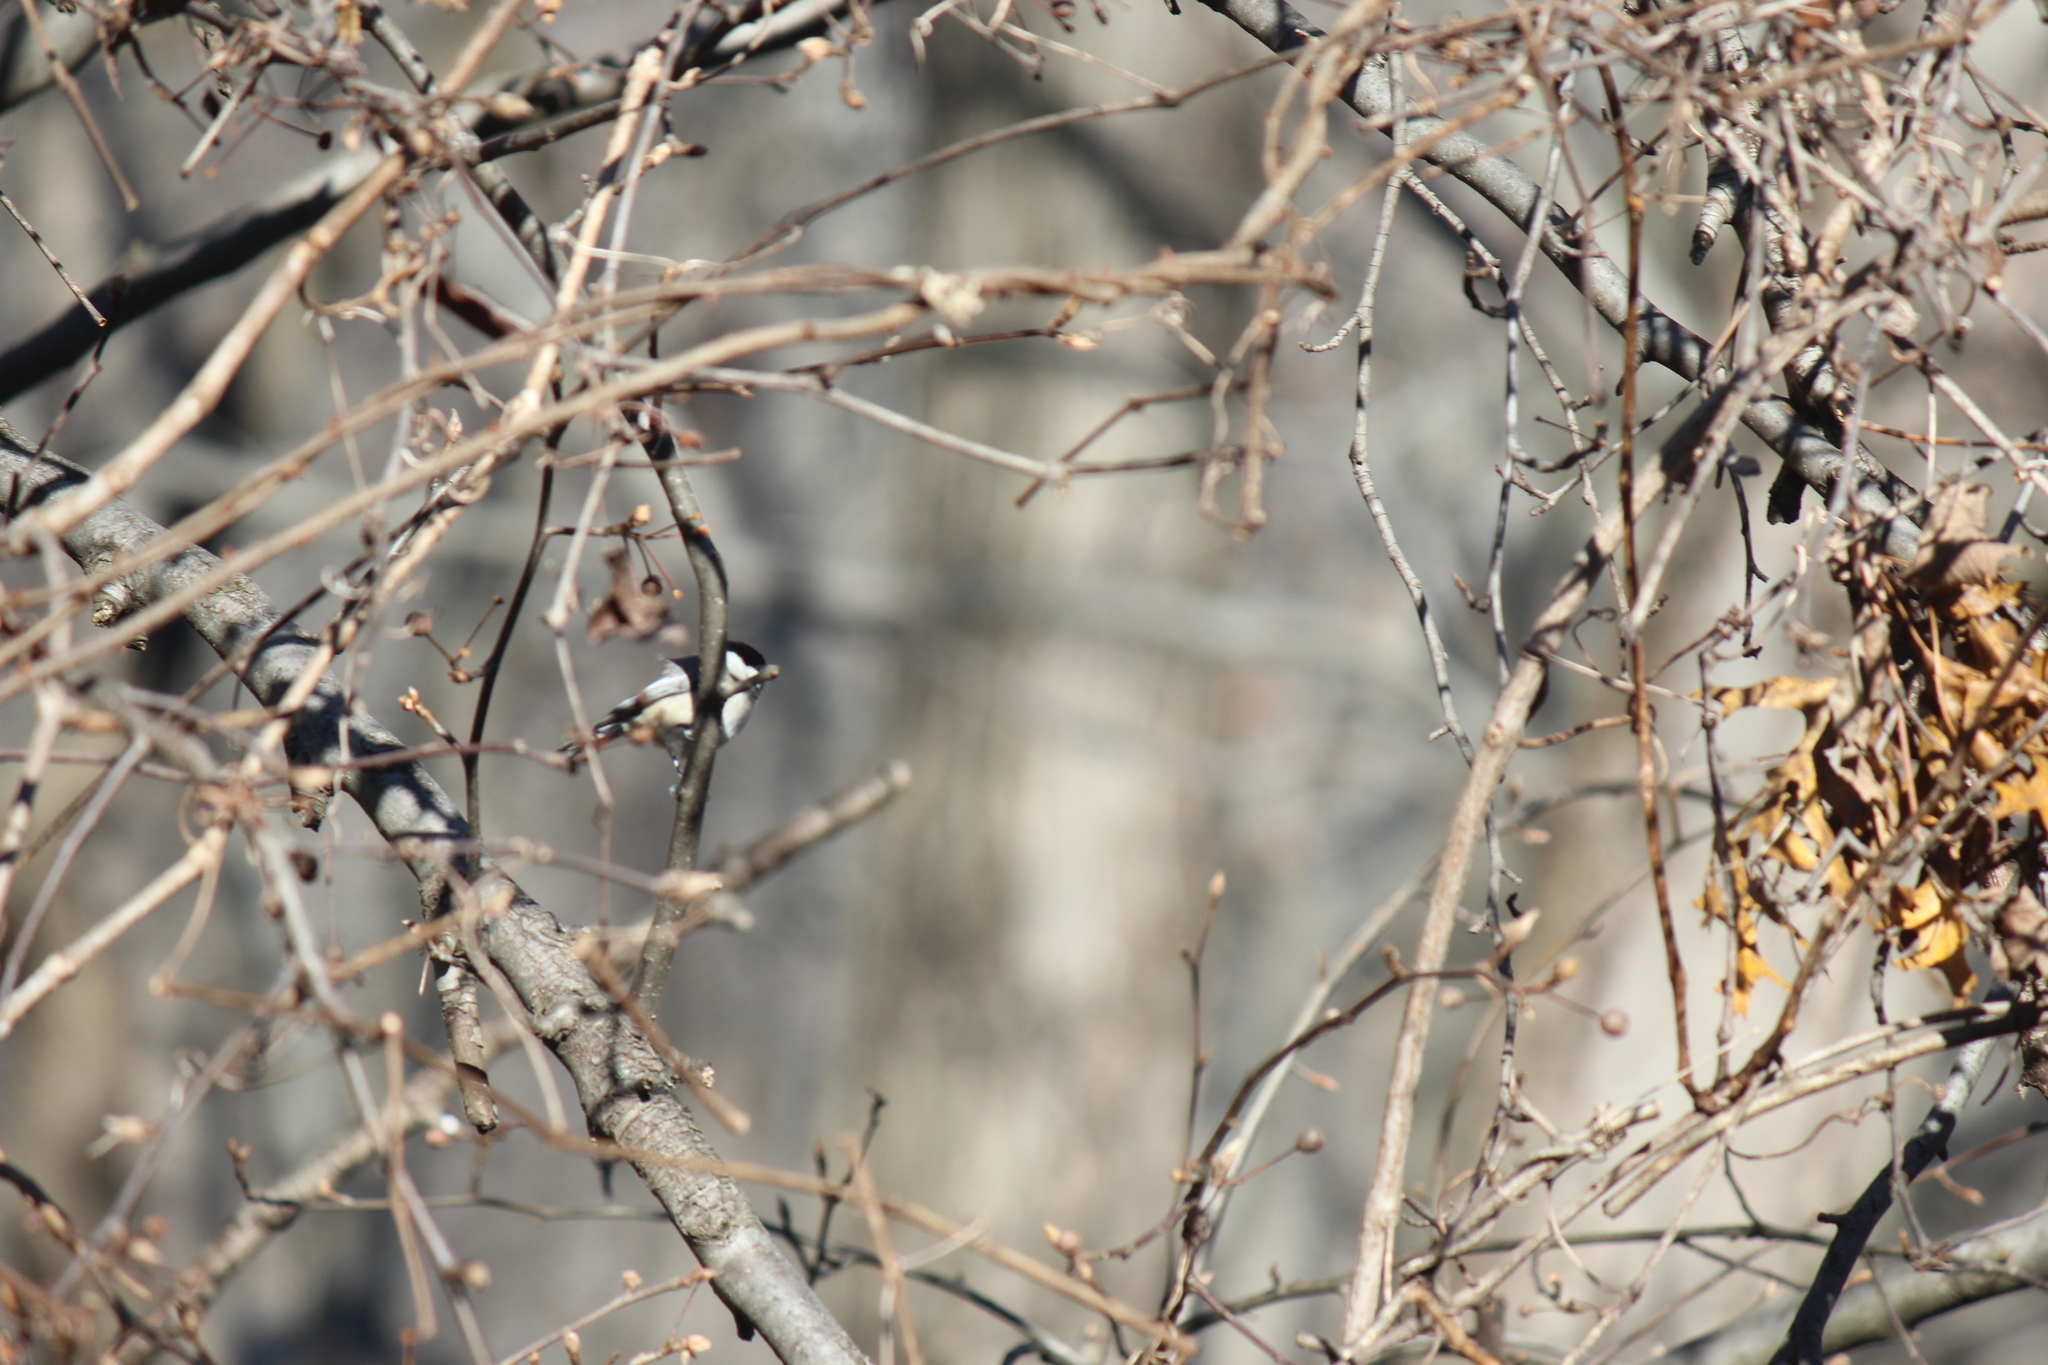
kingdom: Animalia
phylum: Chordata
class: Aves
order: Passeriformes
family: Paridae
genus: Poecile
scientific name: Poecile carolinensis
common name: Carolina chickadee
